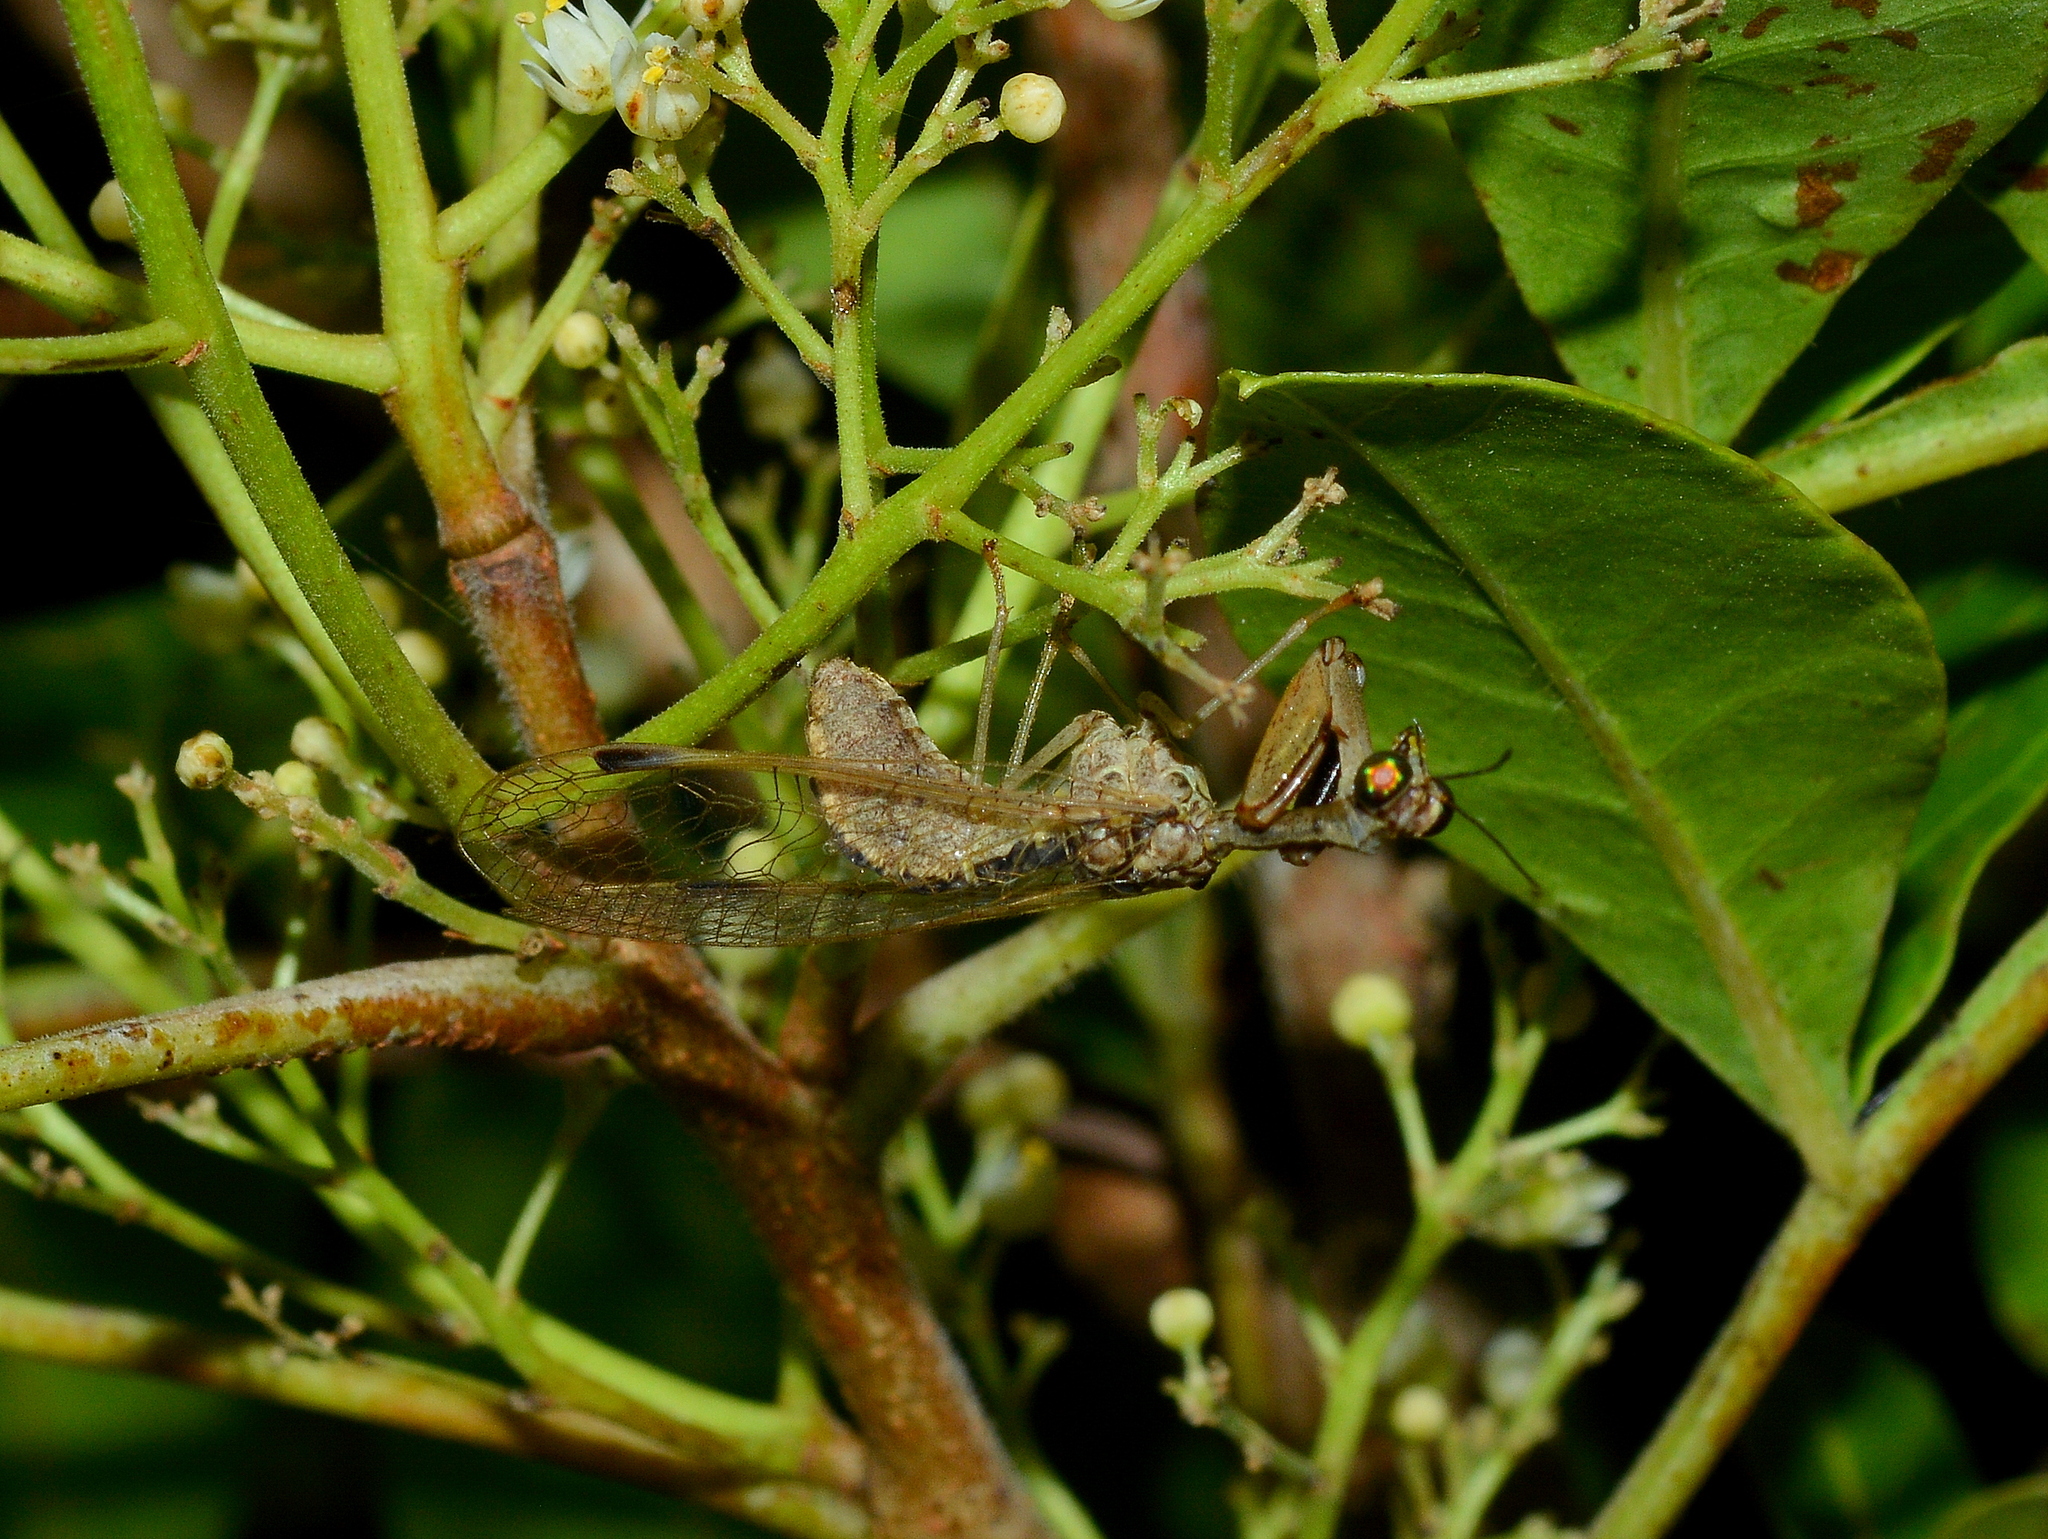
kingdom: Animalia
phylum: Arthropoda
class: Insecta
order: Neuroptera
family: Mantispidae
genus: Paramantispa
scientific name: Paramantispa wagneri
